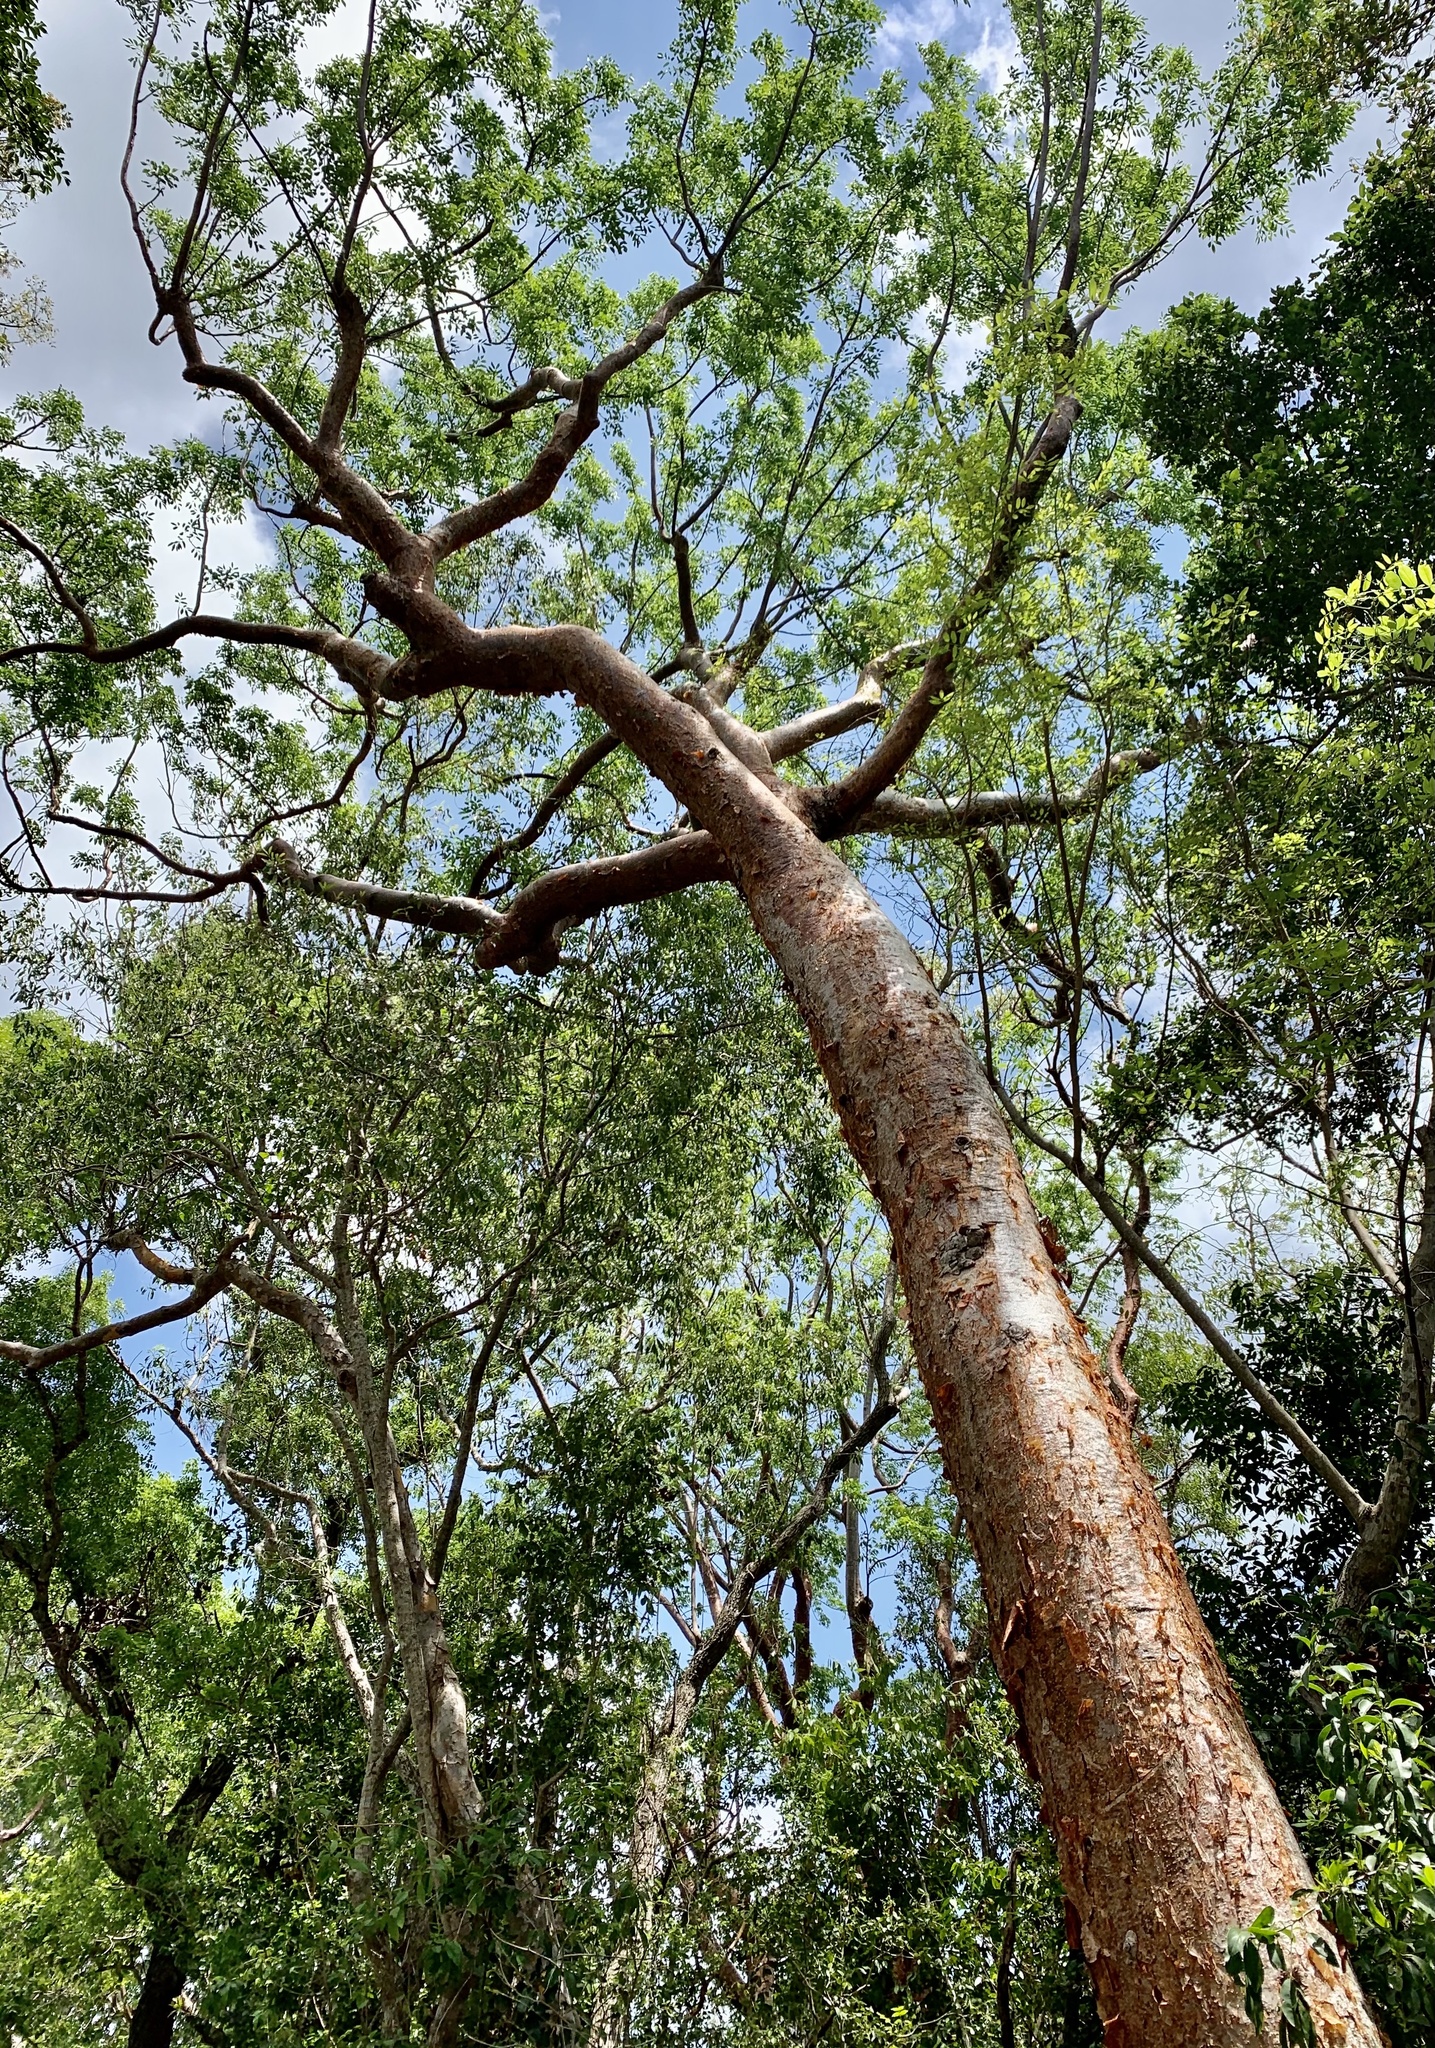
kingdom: Plantae
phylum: Tracheophyta
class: Magnoliopsida
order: Sapindales
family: Burseraceae
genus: Bursera
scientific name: Bursera simaruba
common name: Turpentine tree
